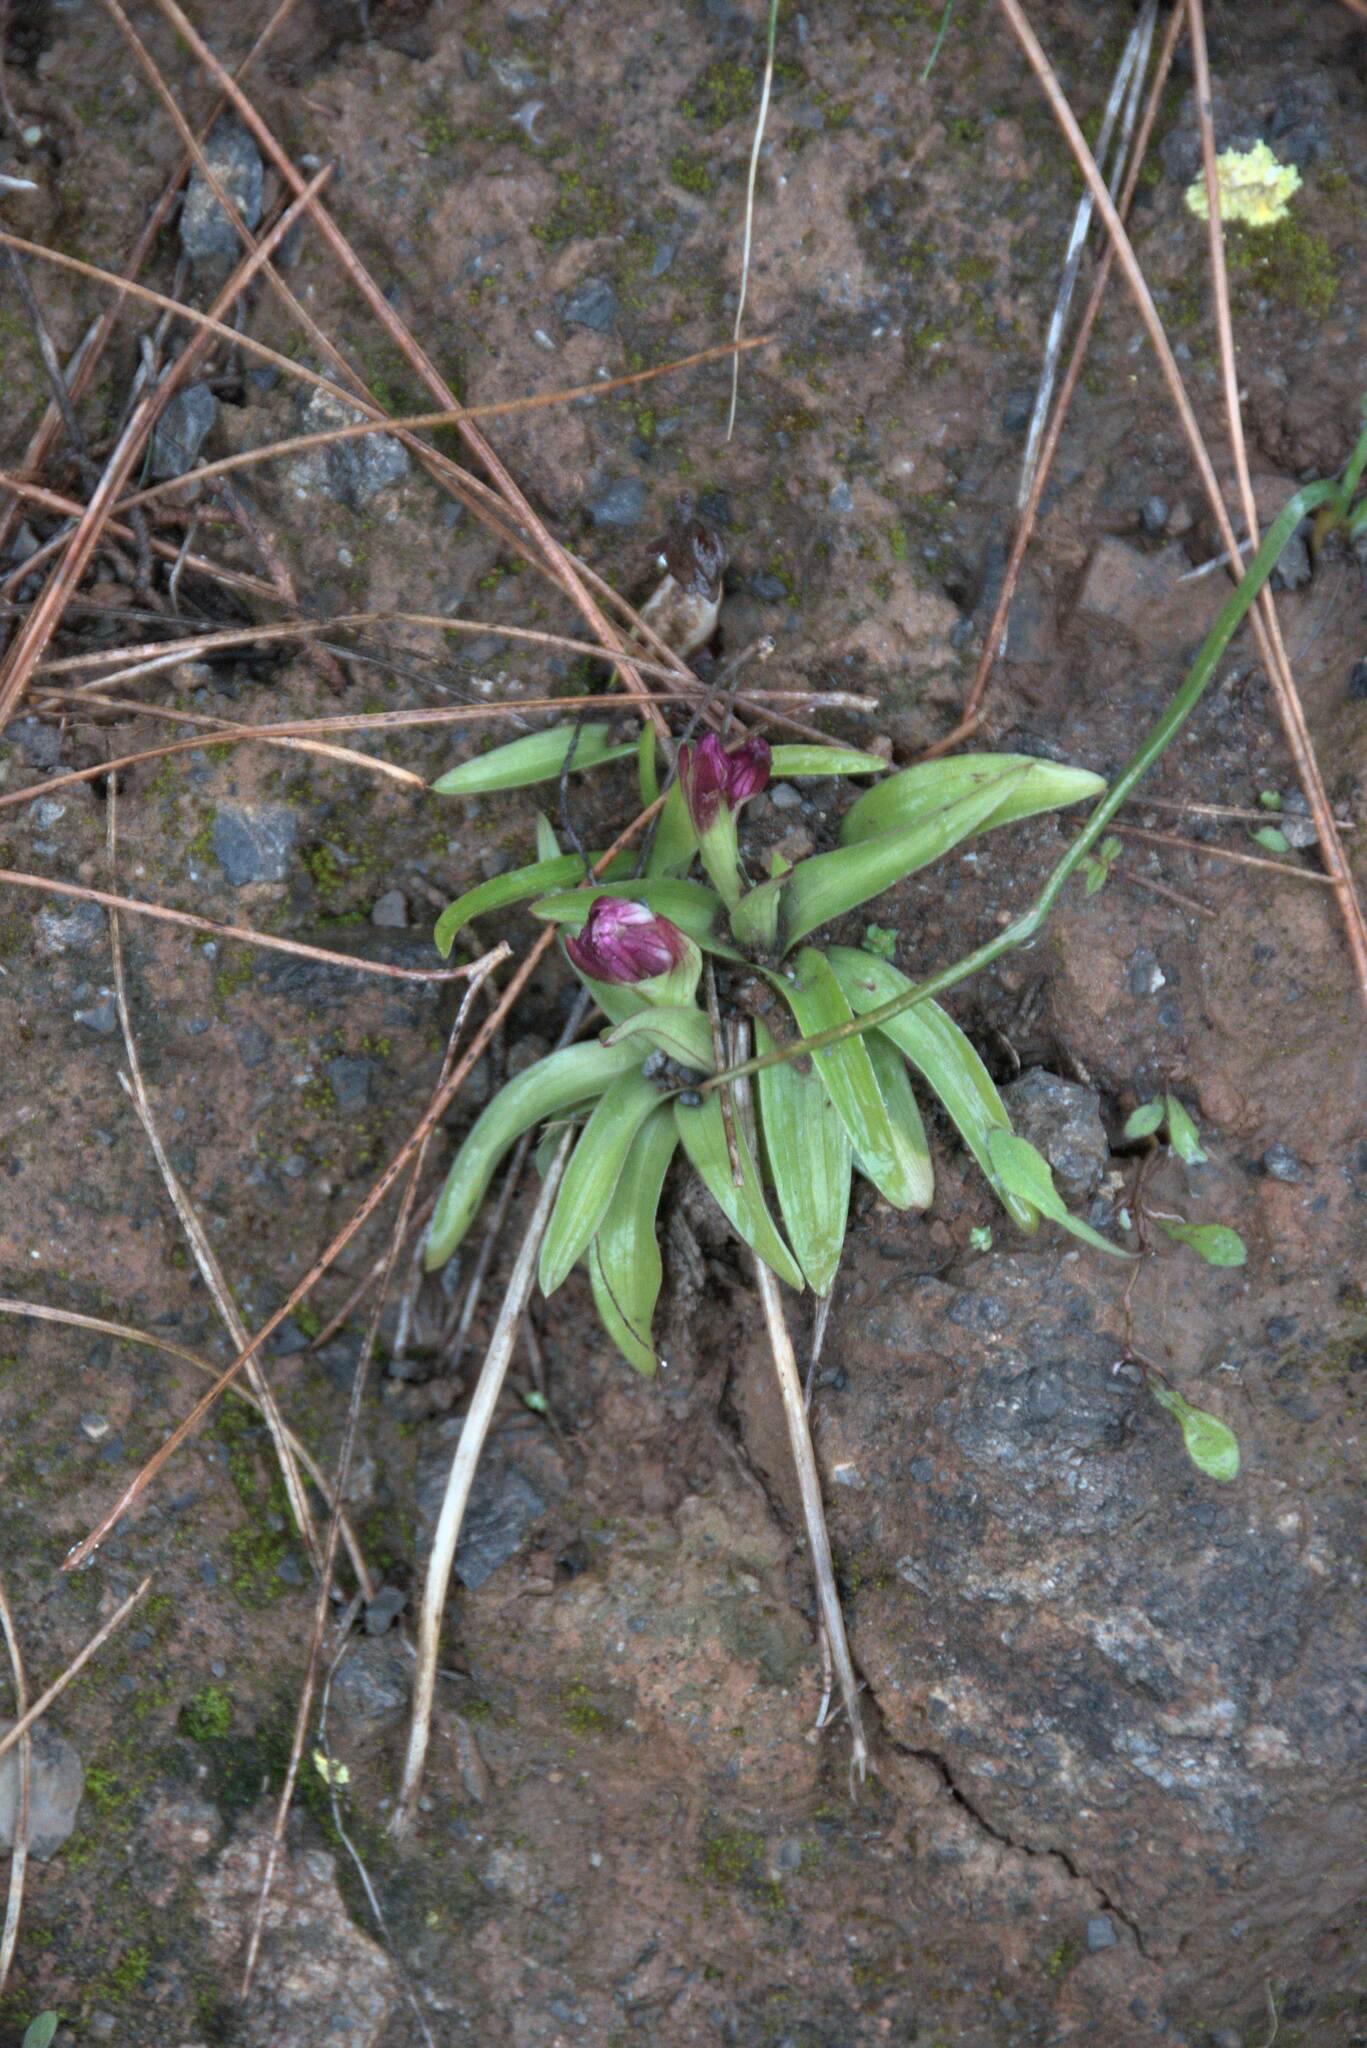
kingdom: Plantae
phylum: Tracheophyta
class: Liliopsida
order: Asparagales
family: Orchidaceae
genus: Anacamptis
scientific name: Anacamptis papilionacea
